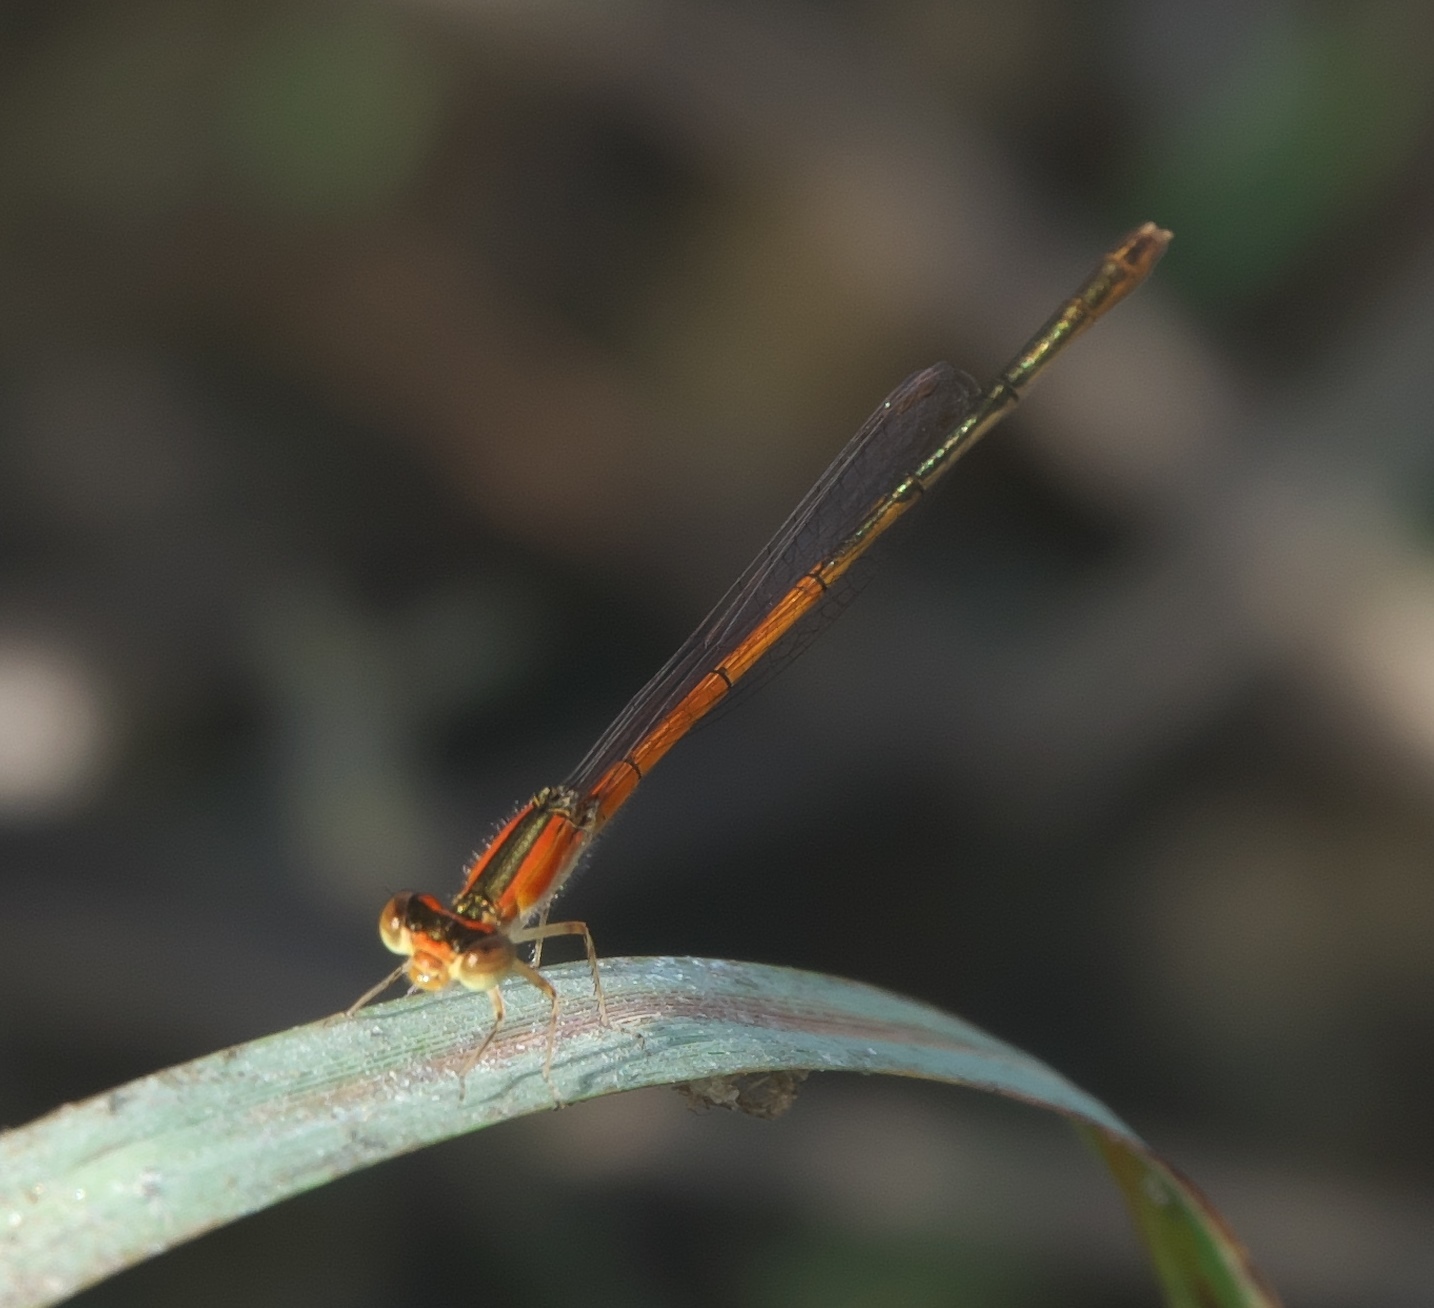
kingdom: Animalia
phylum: Arthropoda
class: Insecta
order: Odonata
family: Coenagrionidae
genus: Ischnura
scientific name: Ischnura hastata
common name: Citrine forktail
